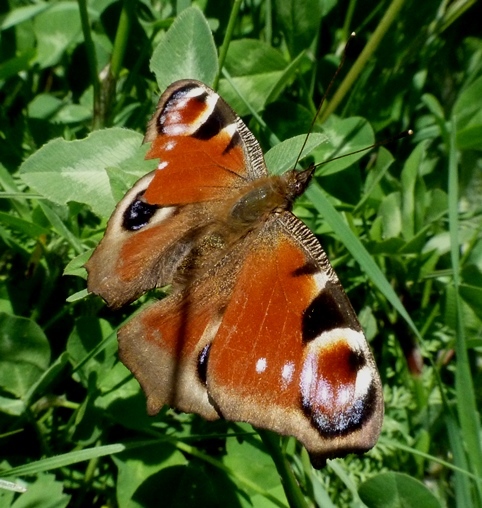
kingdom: Animalia
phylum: Arthropoda
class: Insecta
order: Lepidoptera
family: Nymphalidae
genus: Aglais
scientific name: Aglais io
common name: Peacock
